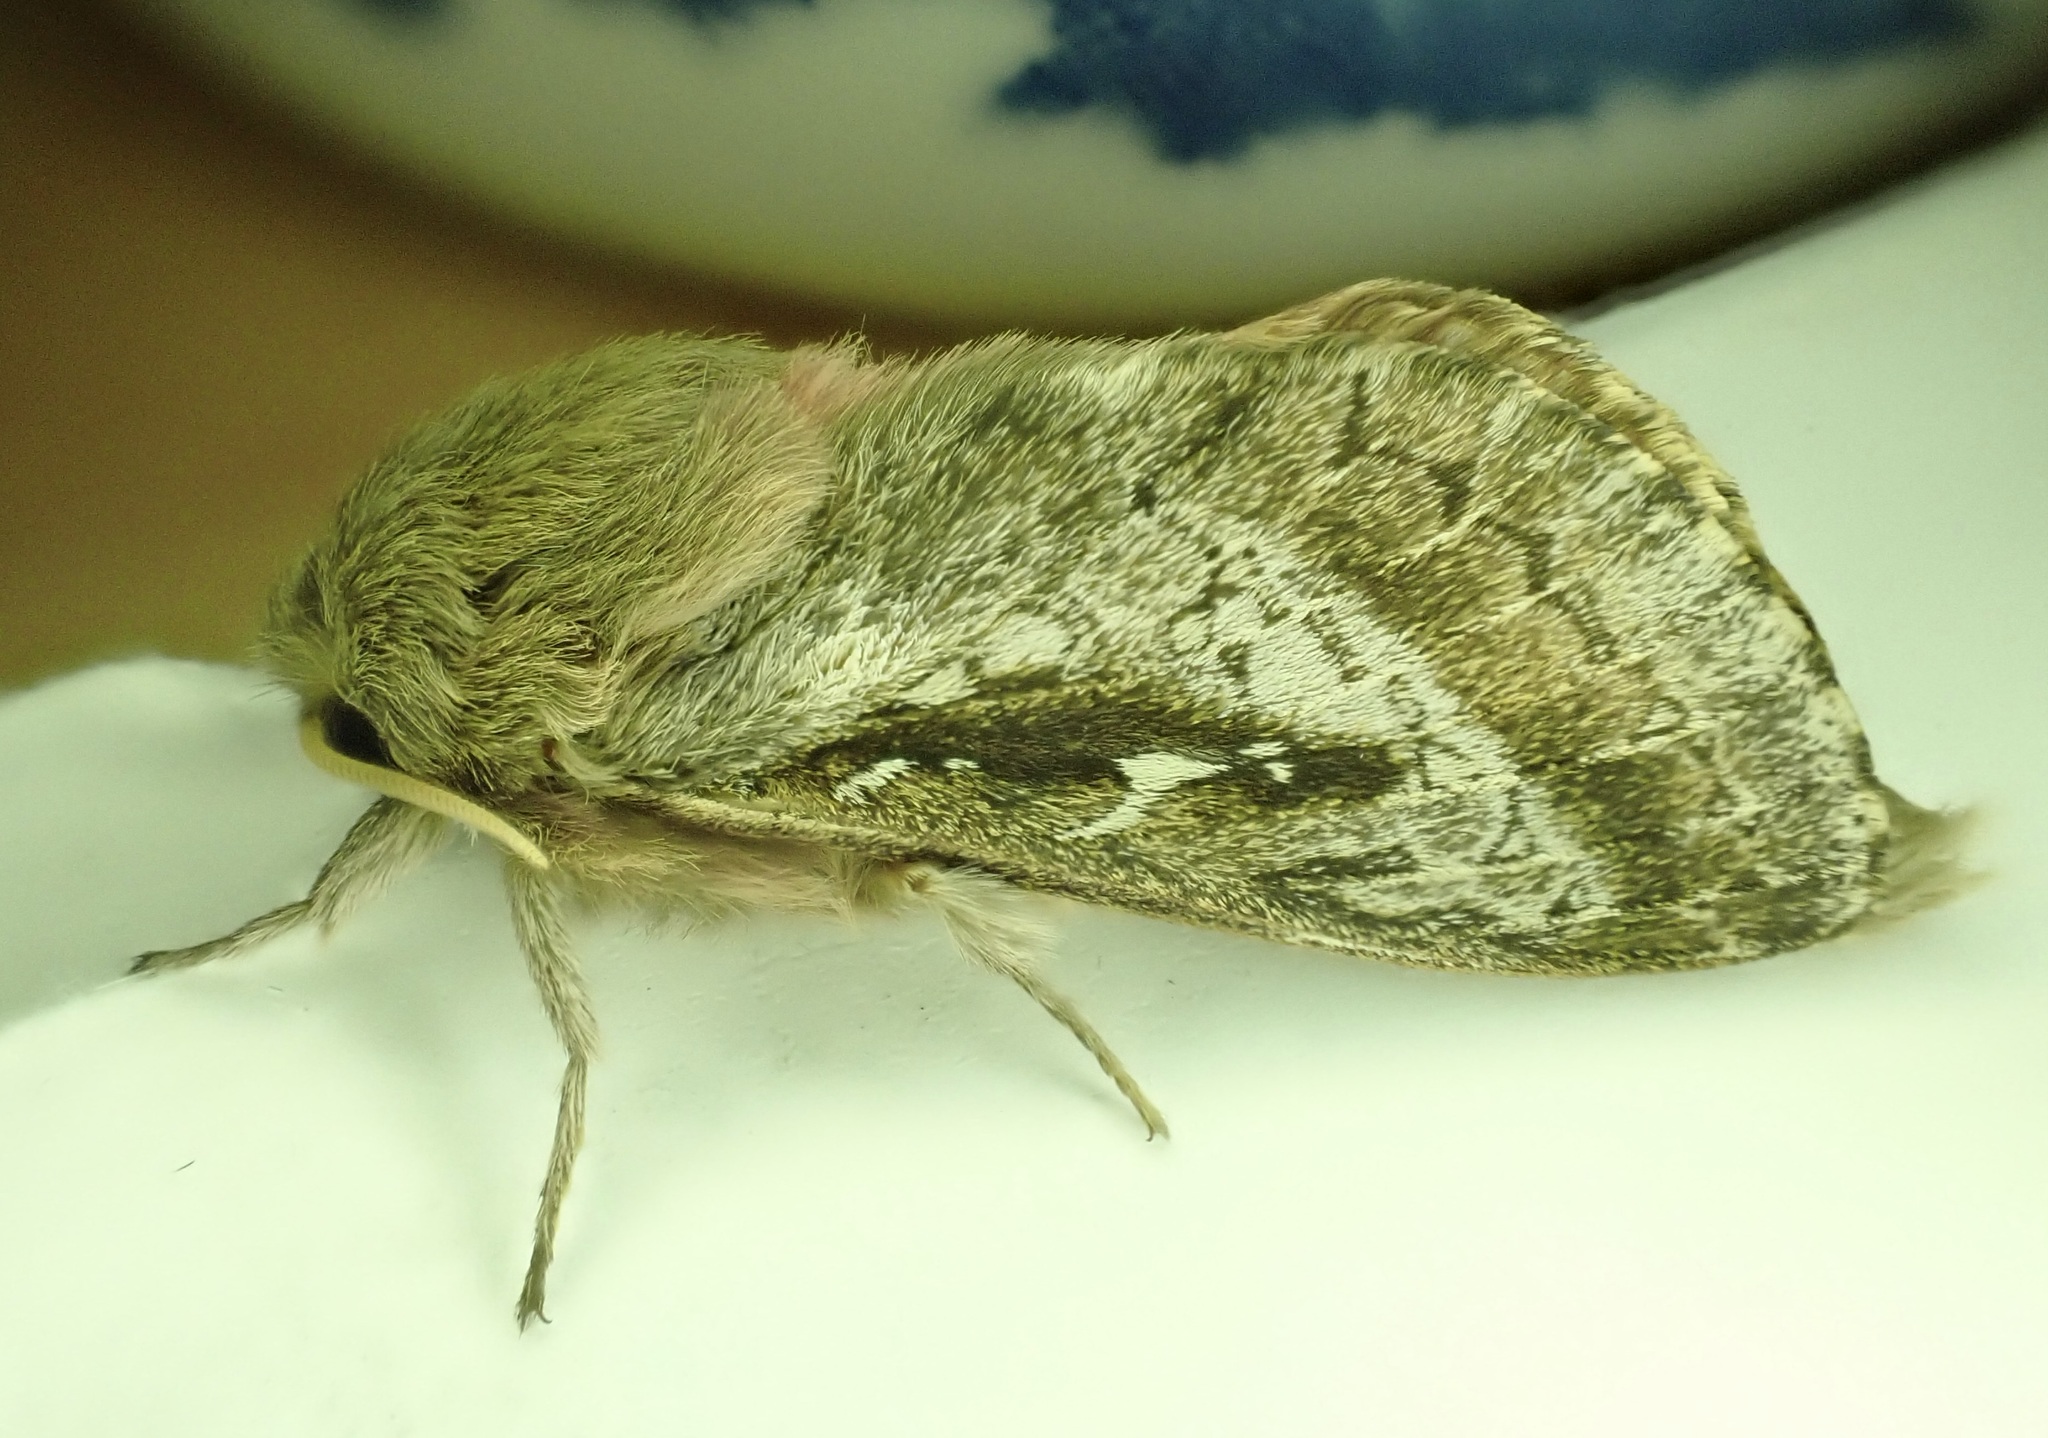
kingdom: Animalia
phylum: Arthropoda
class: Insecta
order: Lepidoptera
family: Hepialidae
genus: Wiseana
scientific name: Wiseana signata
